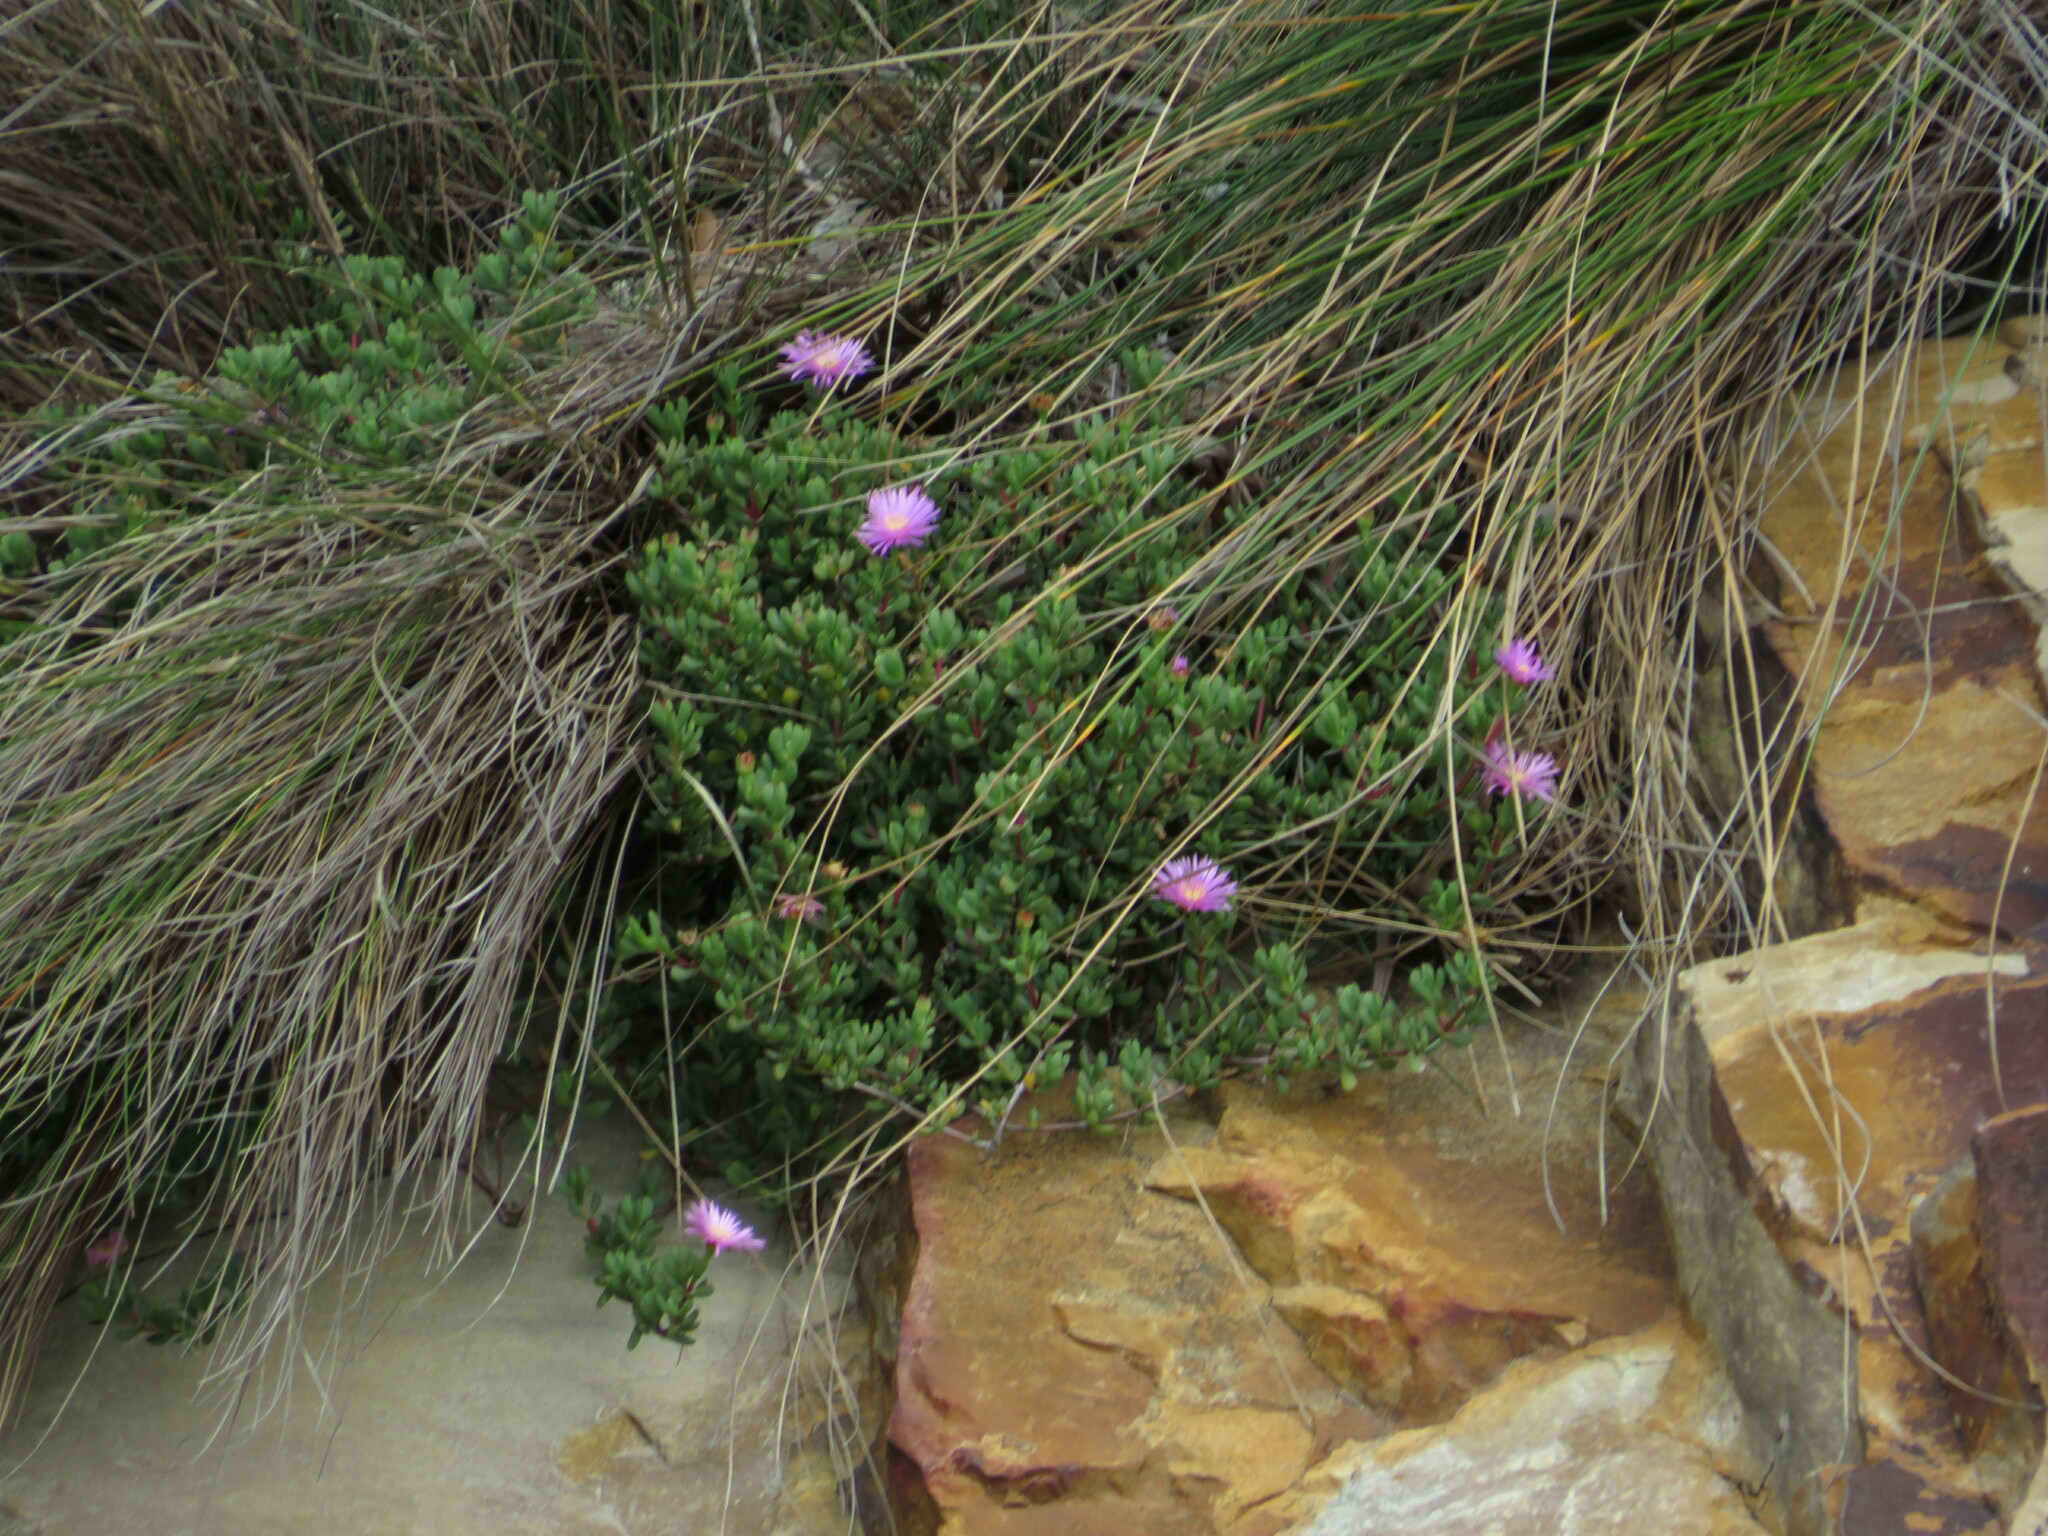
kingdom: Plantae
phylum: Tracheophyta
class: Magnoliopsida
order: Caryophyllales
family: Aizoaceae
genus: Oscularia
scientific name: Oscularia falciformis
